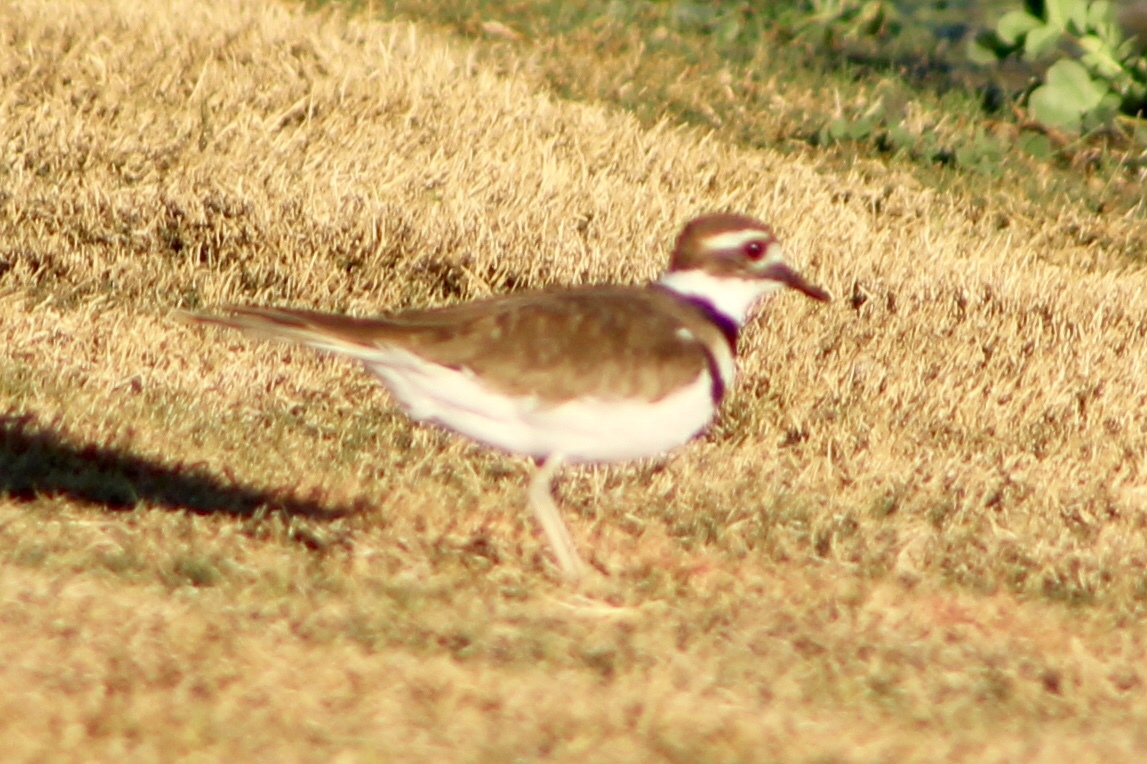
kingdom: Animalia
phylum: Chordata
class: Aves
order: Charadriiformes
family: Charadriidae
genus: Charadrius
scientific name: Charadrius vociferus
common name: Killdeer
